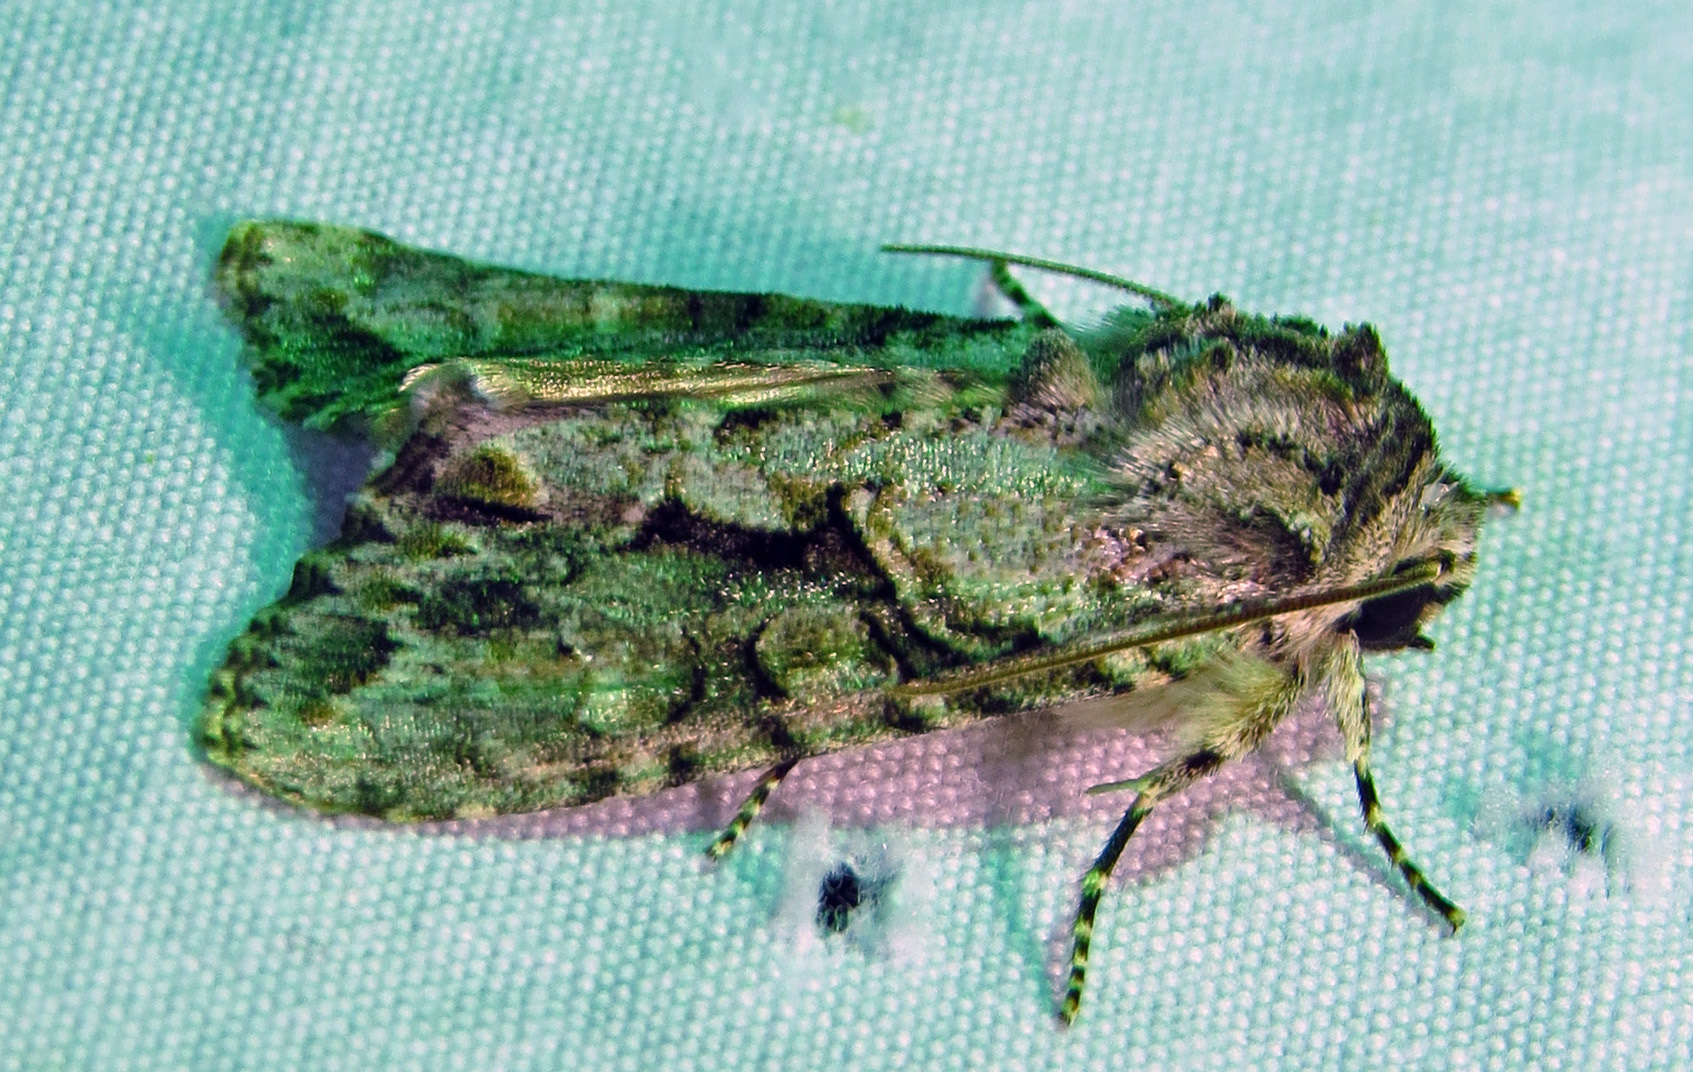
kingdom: Animalia
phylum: Arthropoda
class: Insecta
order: Lepidoptera
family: Noctuidae
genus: Achatia
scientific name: Achatia distincta
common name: Distinct quaker
